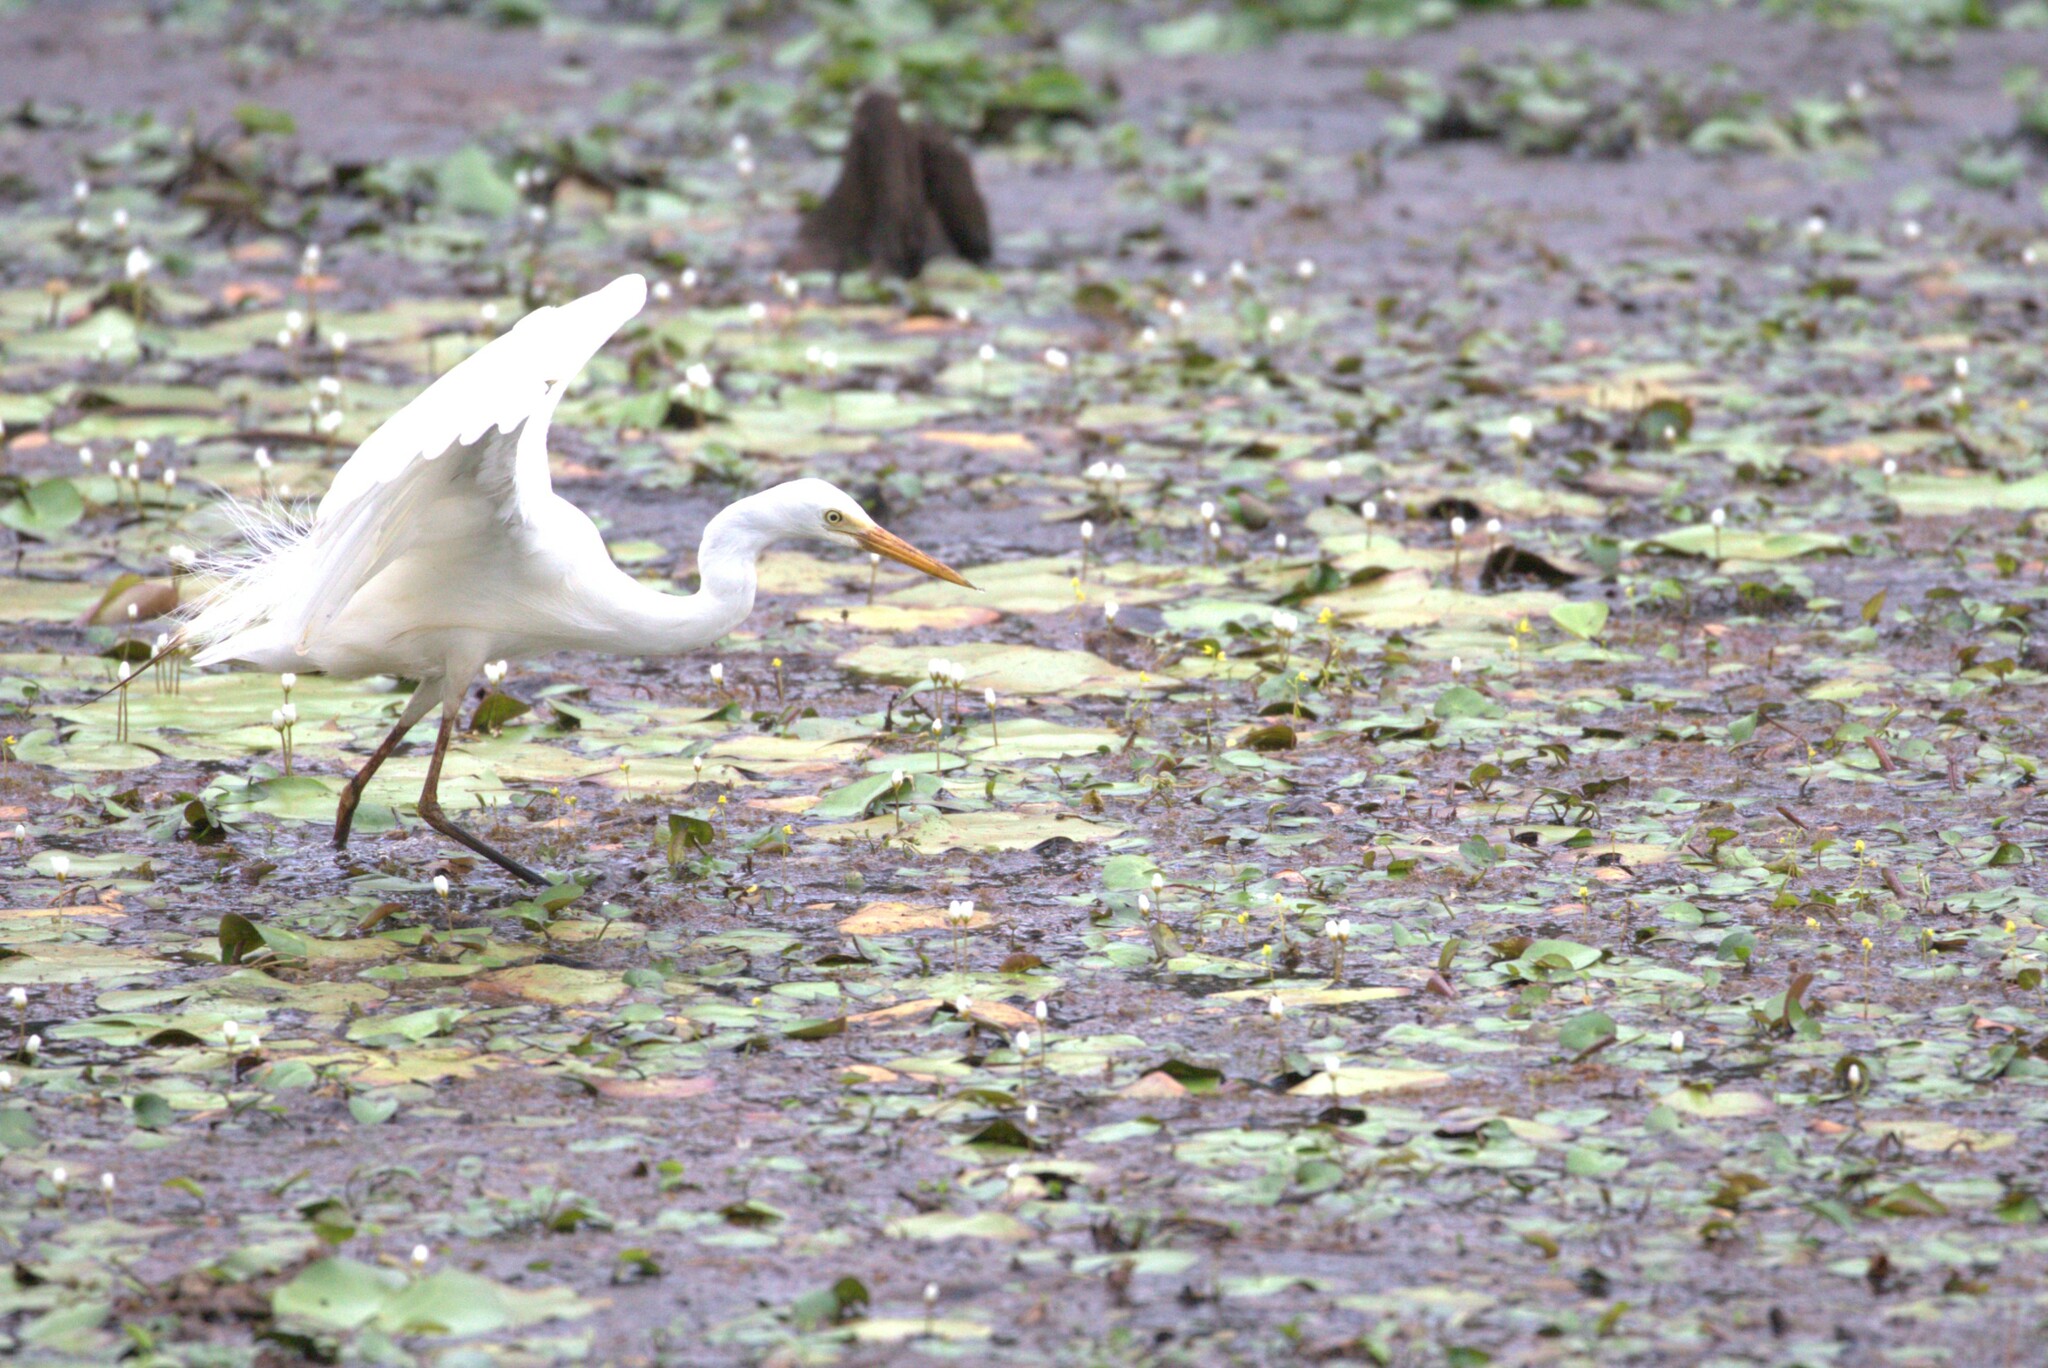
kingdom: Animalia
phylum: Chordata
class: Aves
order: Pelecaniformes
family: Ardeidae
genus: Egretta
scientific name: Egretta intermedia
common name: Intermediate egret
